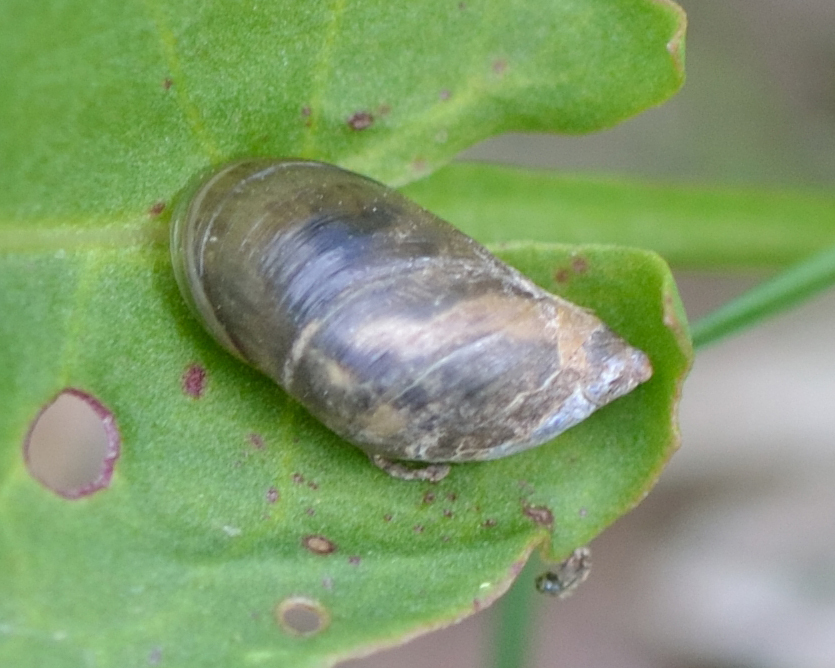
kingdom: Animalia
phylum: Mollusca
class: Gastropoda
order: Stylommatophora
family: Succineidae
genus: Succinea
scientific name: Succinea putris
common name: European ambersnail
